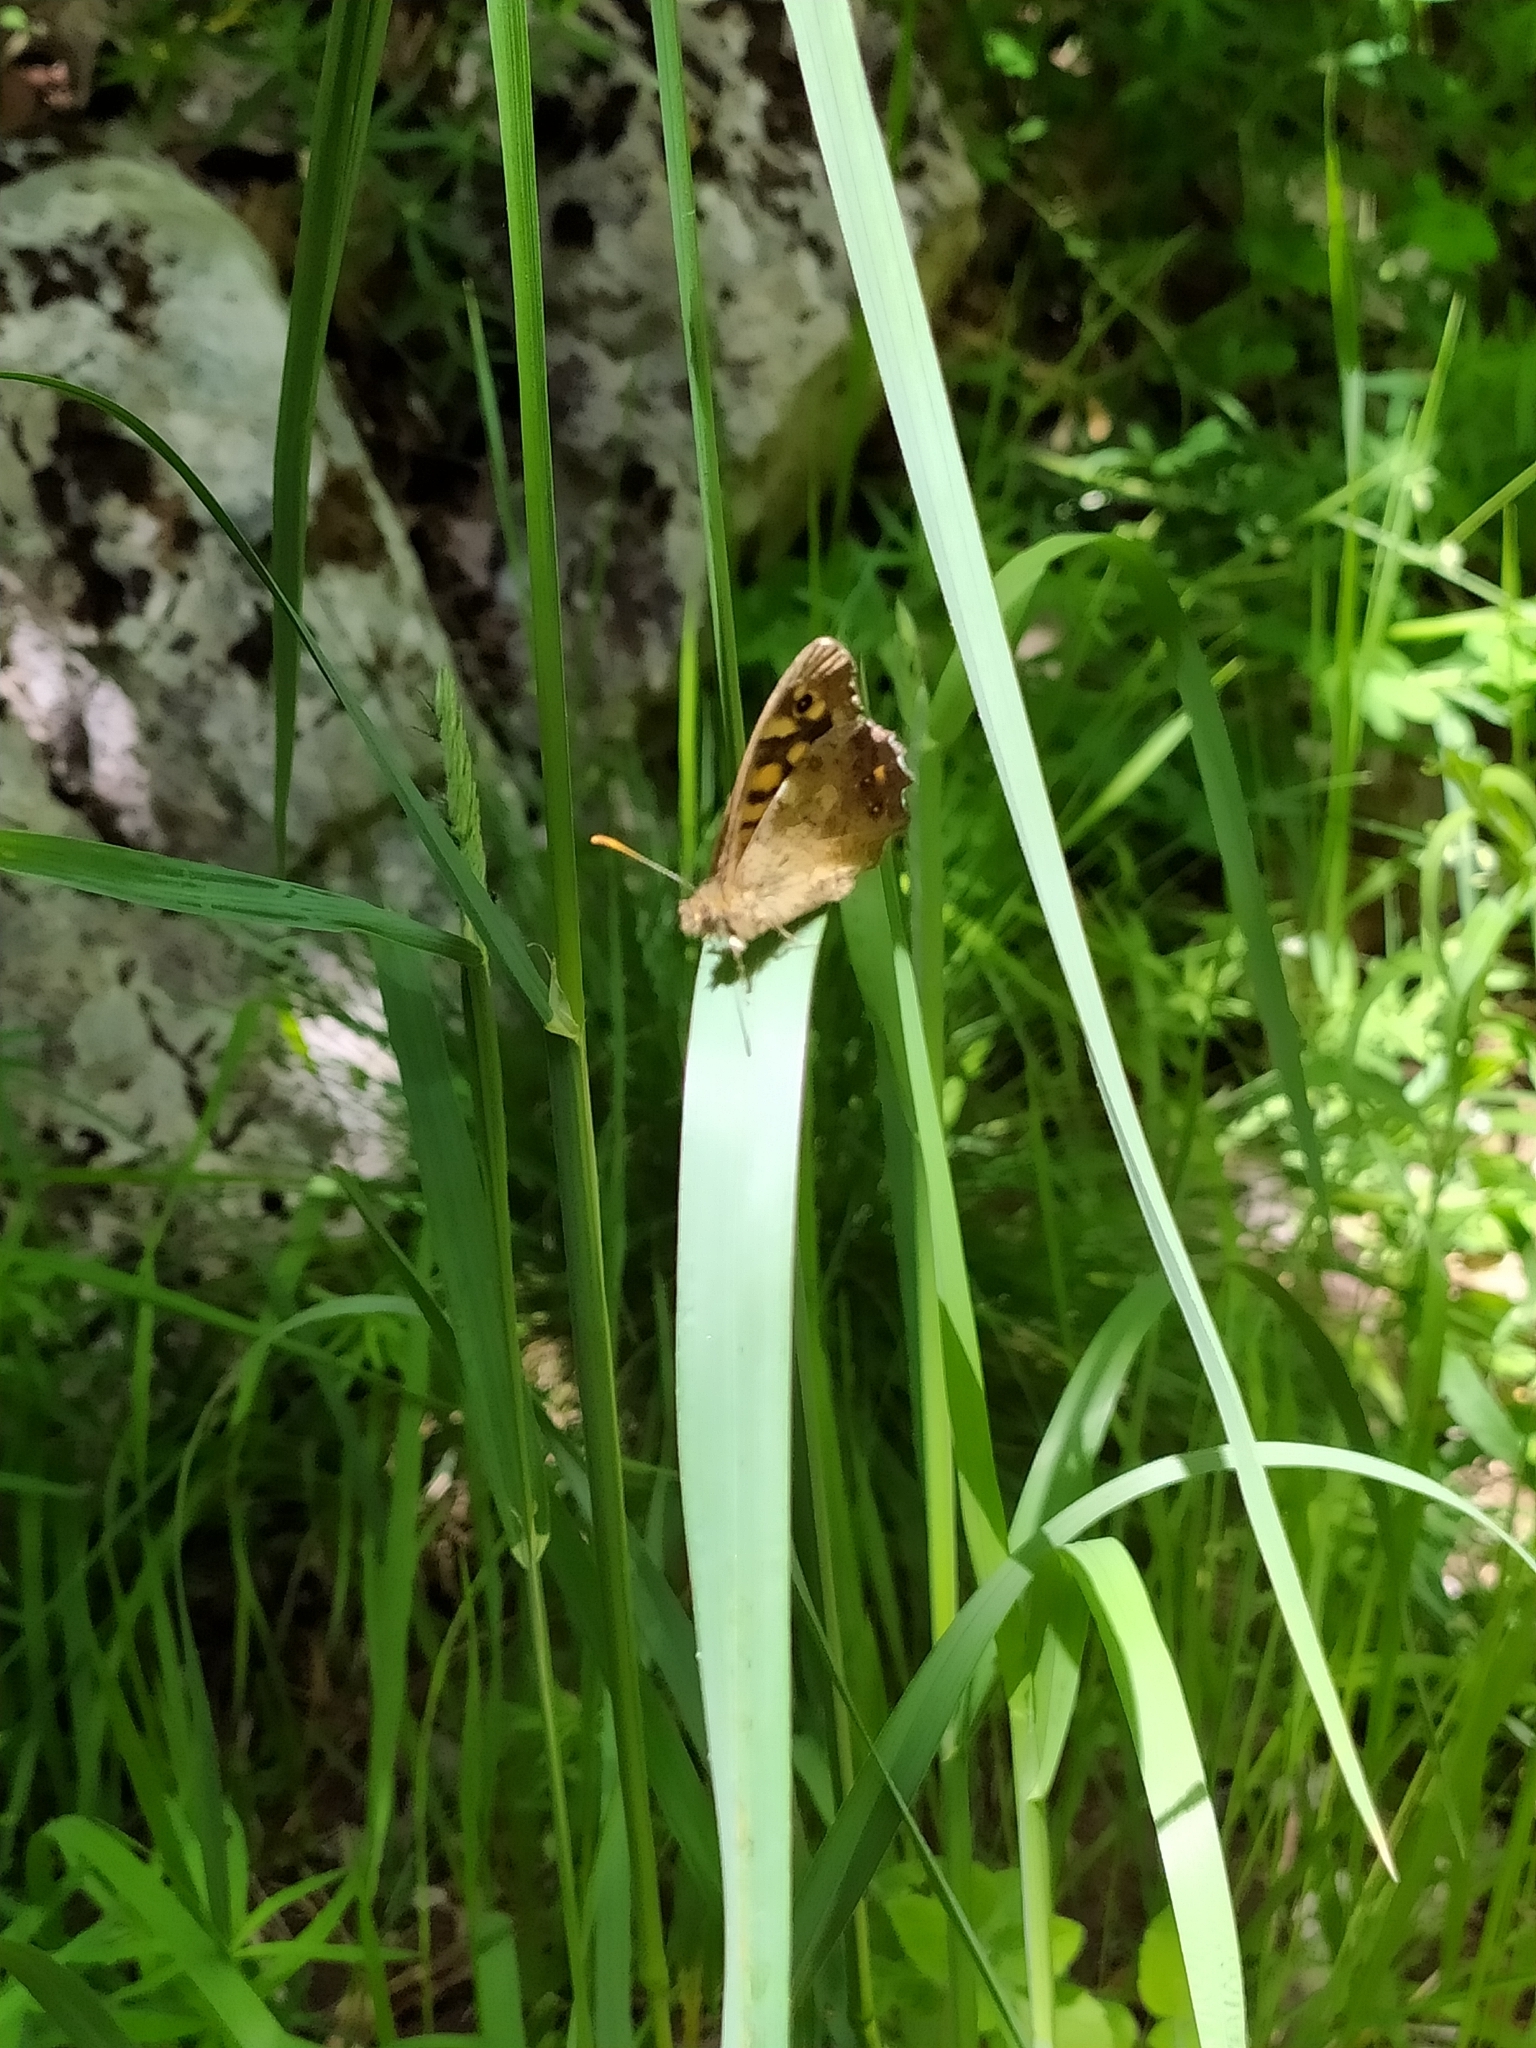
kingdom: Animalia
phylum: Arthropoda
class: Insecta
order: Lepidoptera
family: Nymphalidae
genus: Pararge
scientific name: Pararge aegeria
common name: Speckled wood
